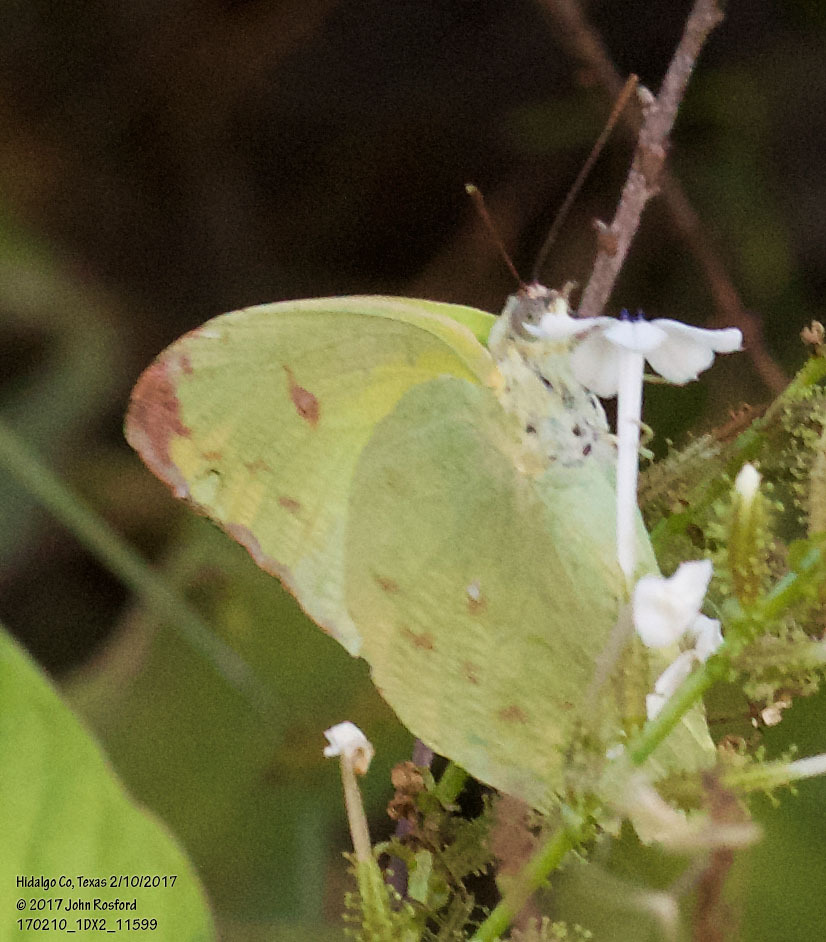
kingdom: Animalia
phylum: Arthropoda
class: Insecta
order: Lepidoptera
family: Pieridae
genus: Aphrissa
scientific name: Aphrissa statira
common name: Statira sulphur
